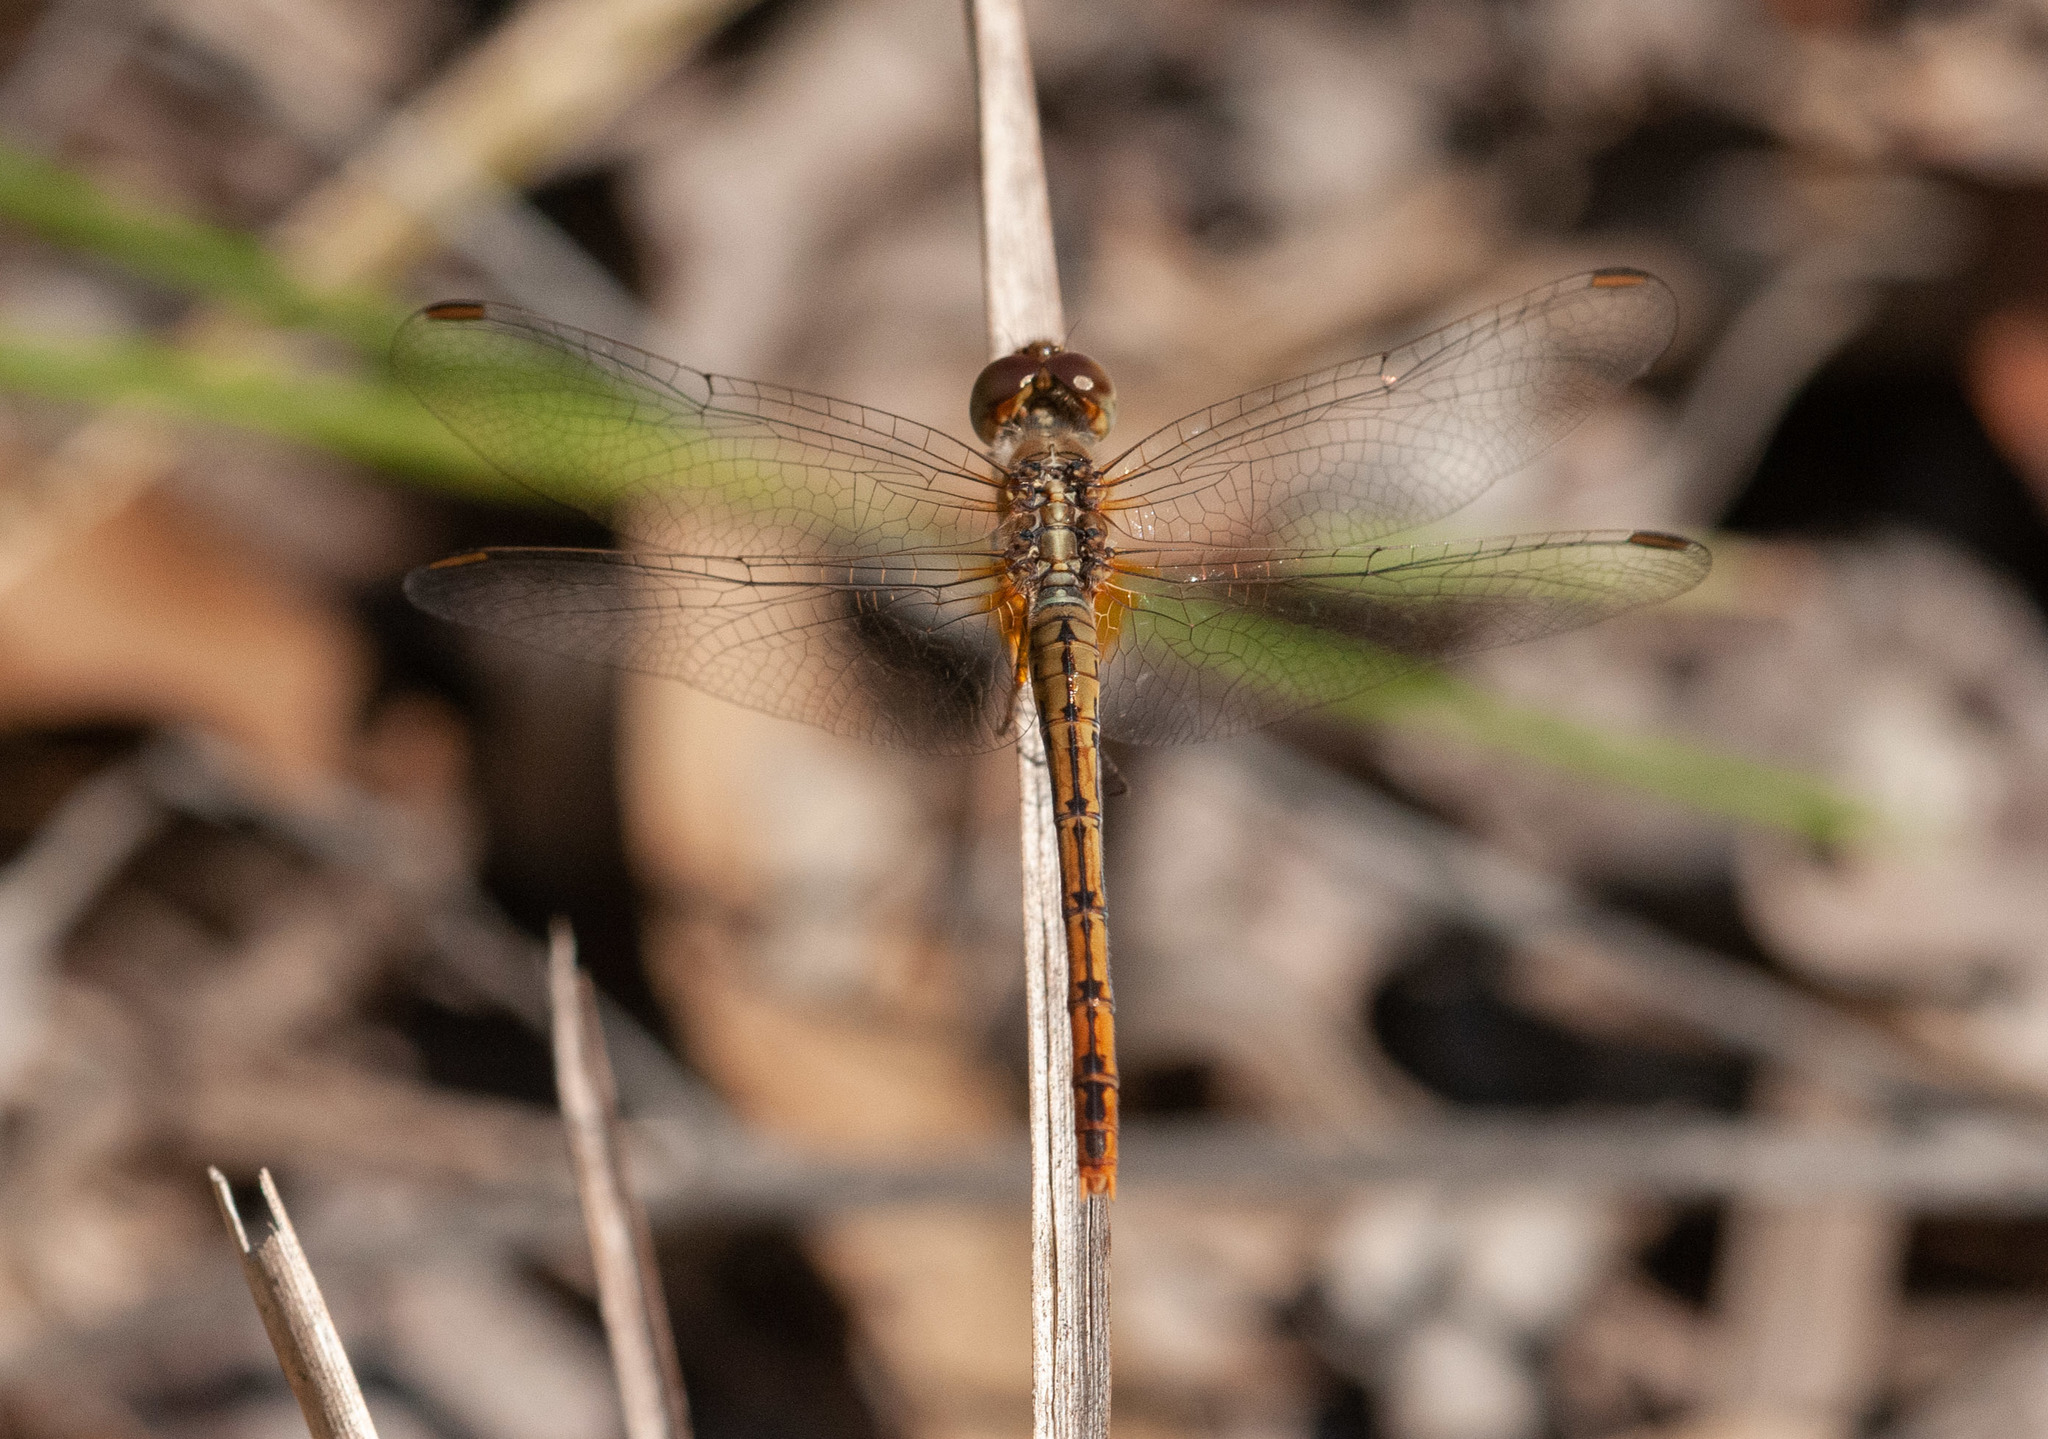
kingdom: Animalia
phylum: Arthropoda
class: Insecta
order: Odonata
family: Libellulidae
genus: Diplacodes
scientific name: Diplacodes bipunctata
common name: Red percher dragonfly
